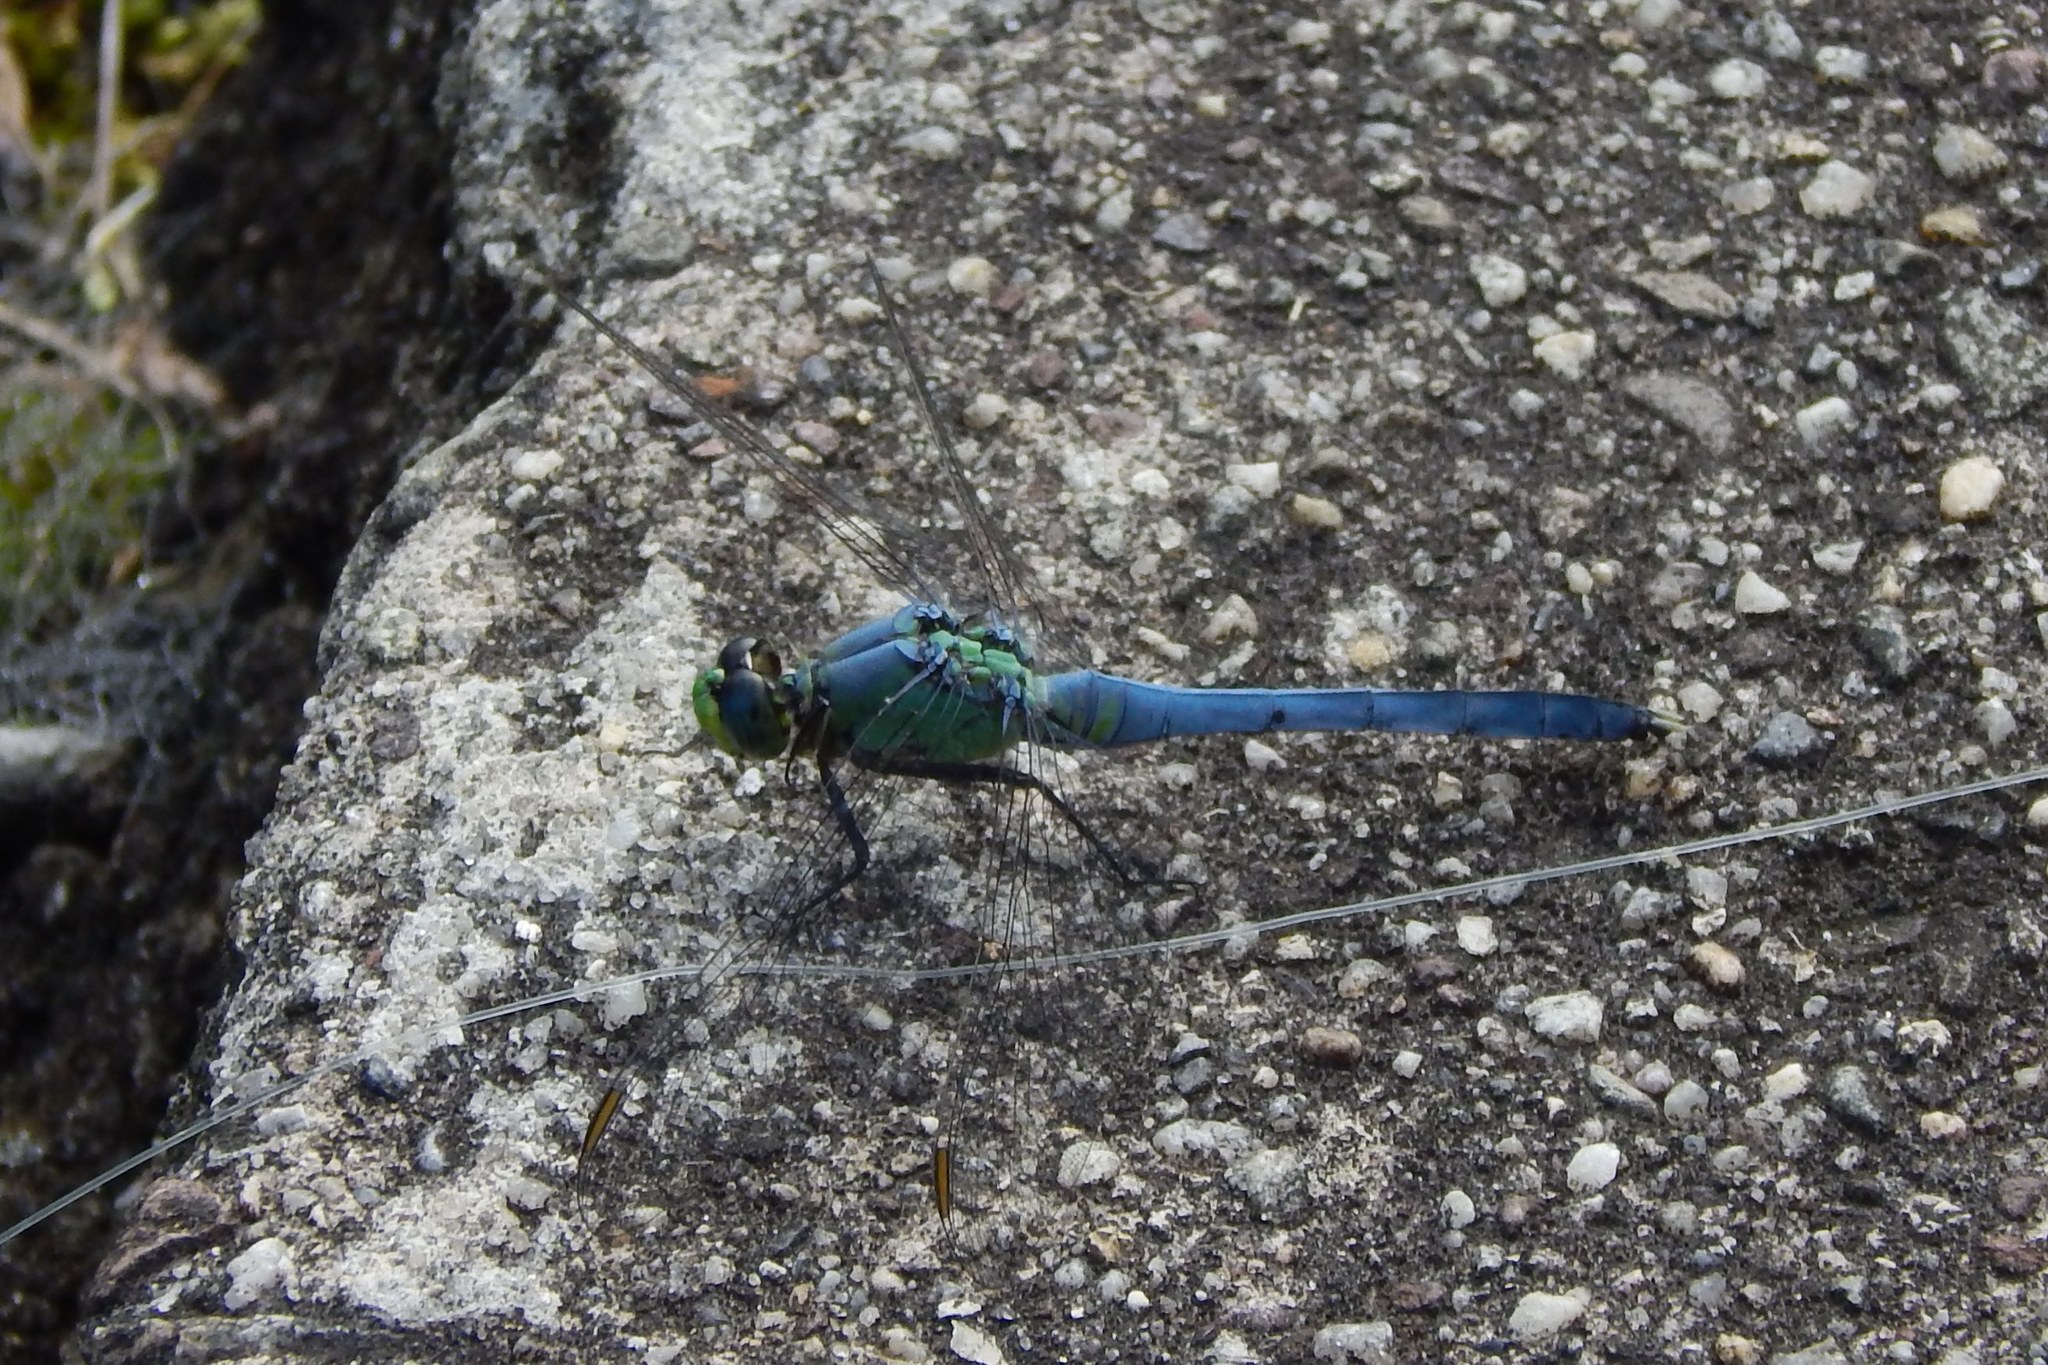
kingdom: Animalia
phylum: Arthropoda
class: Insecta
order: Odonata
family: Libellulidae
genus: Erythemis
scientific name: Erythemis simplicicollis
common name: Eastern pondhawk
